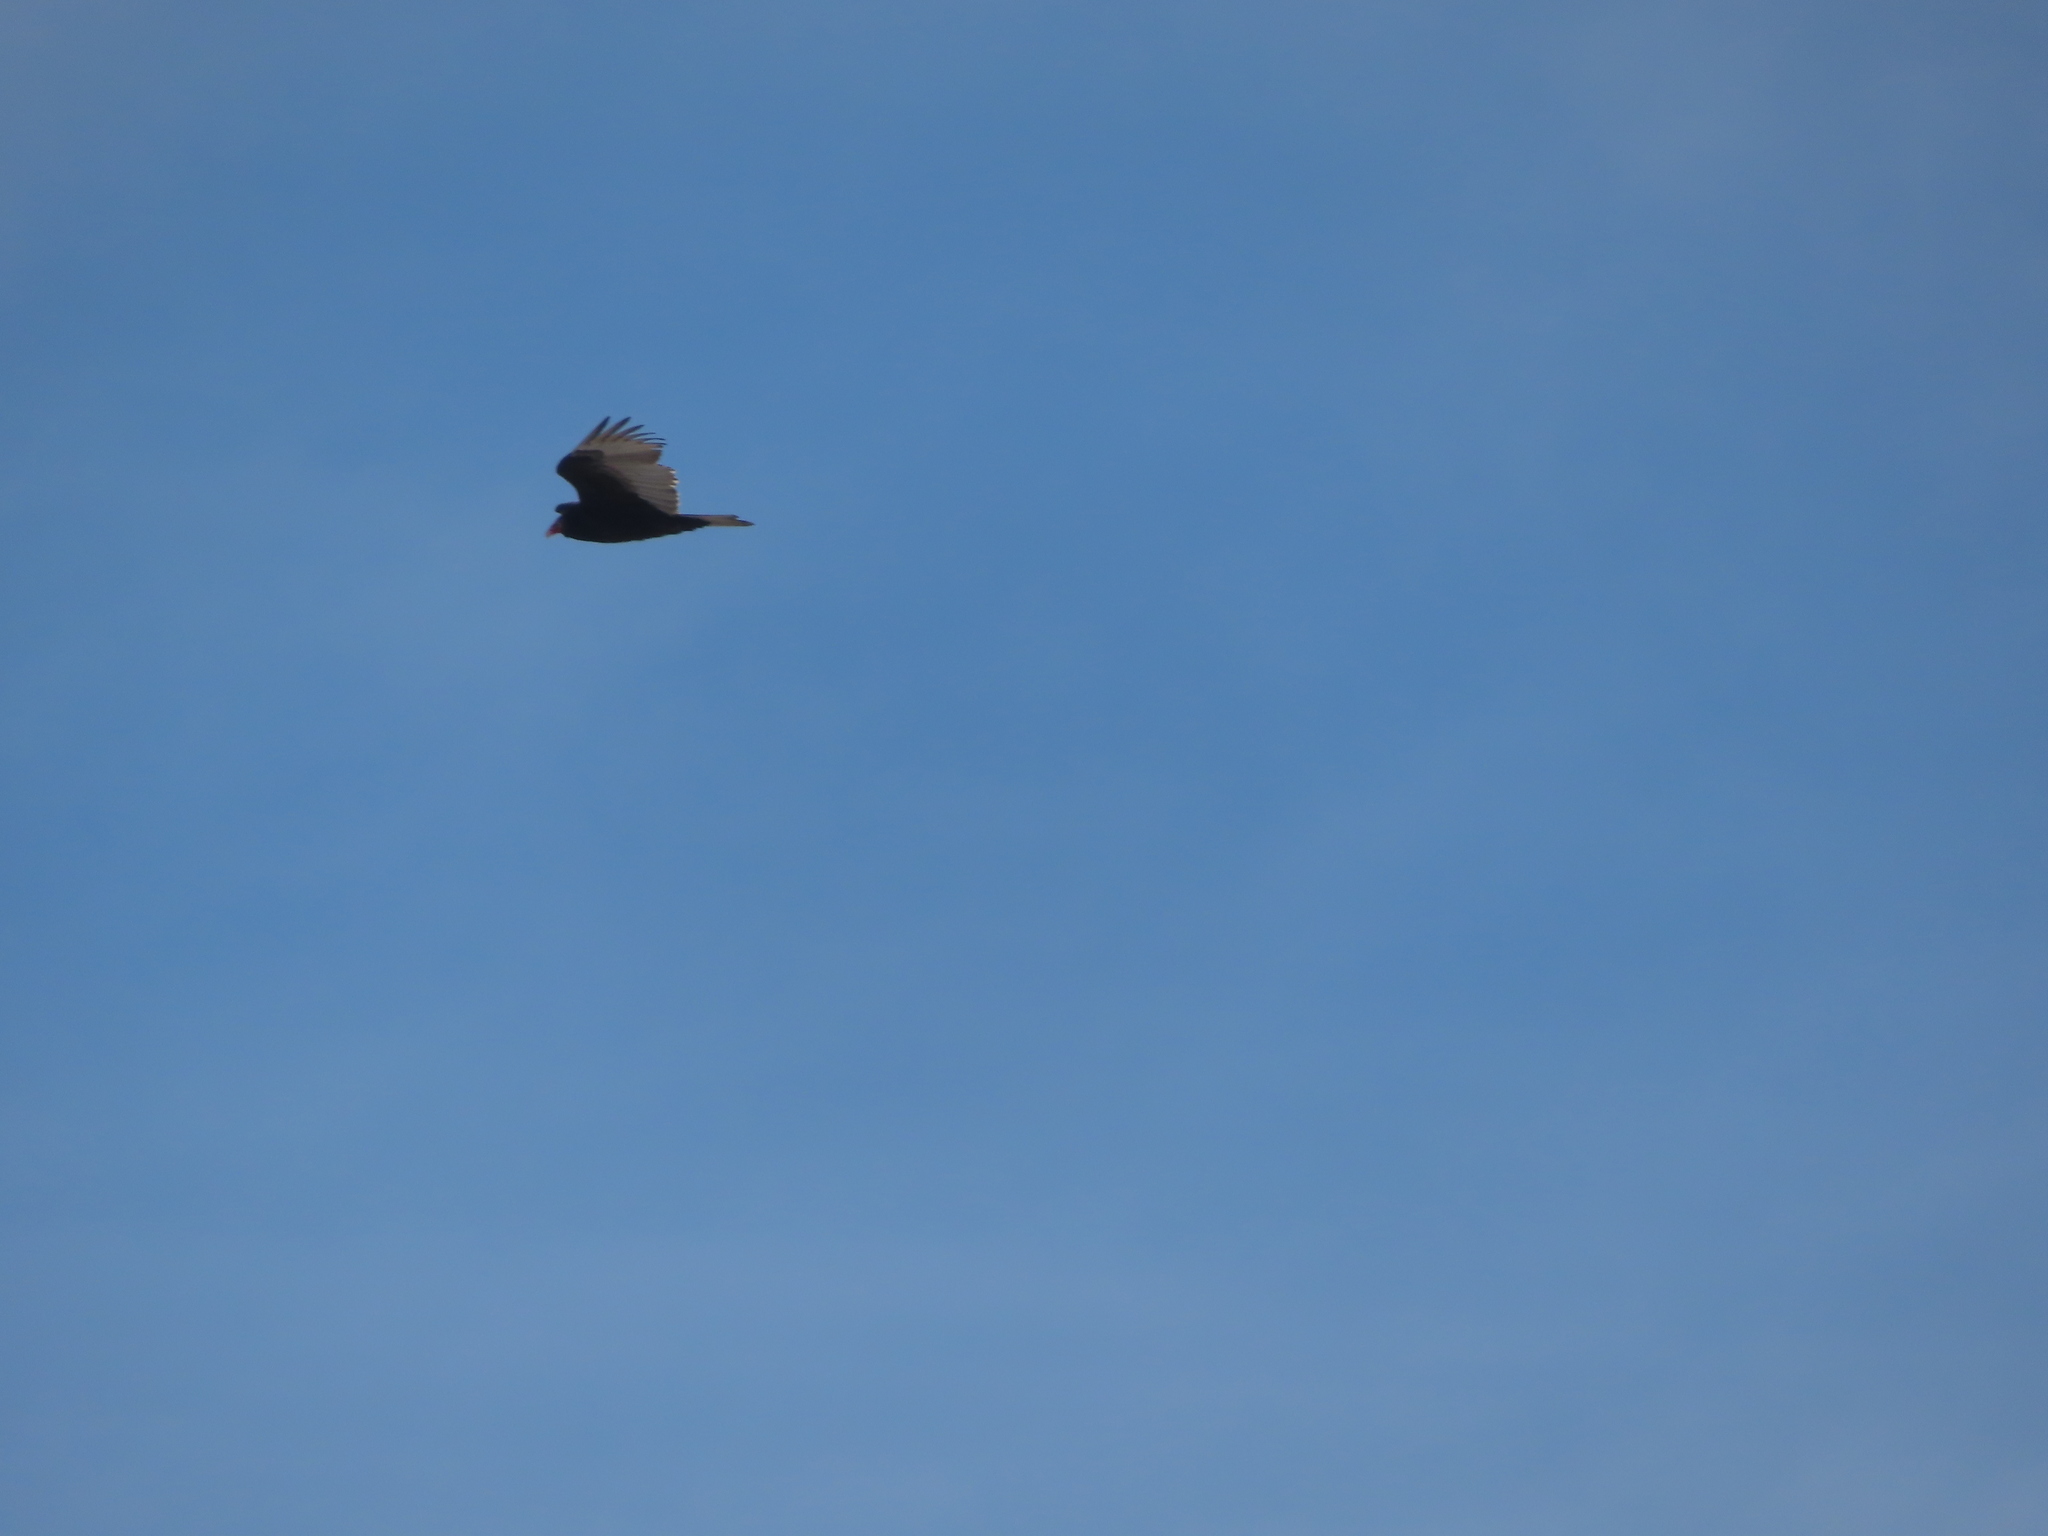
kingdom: Animalia
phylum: Chordata
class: Aves
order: Accipitriformes
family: Cathartidae
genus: Cathartes
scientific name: Cathartes aura
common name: Turkey vulture
